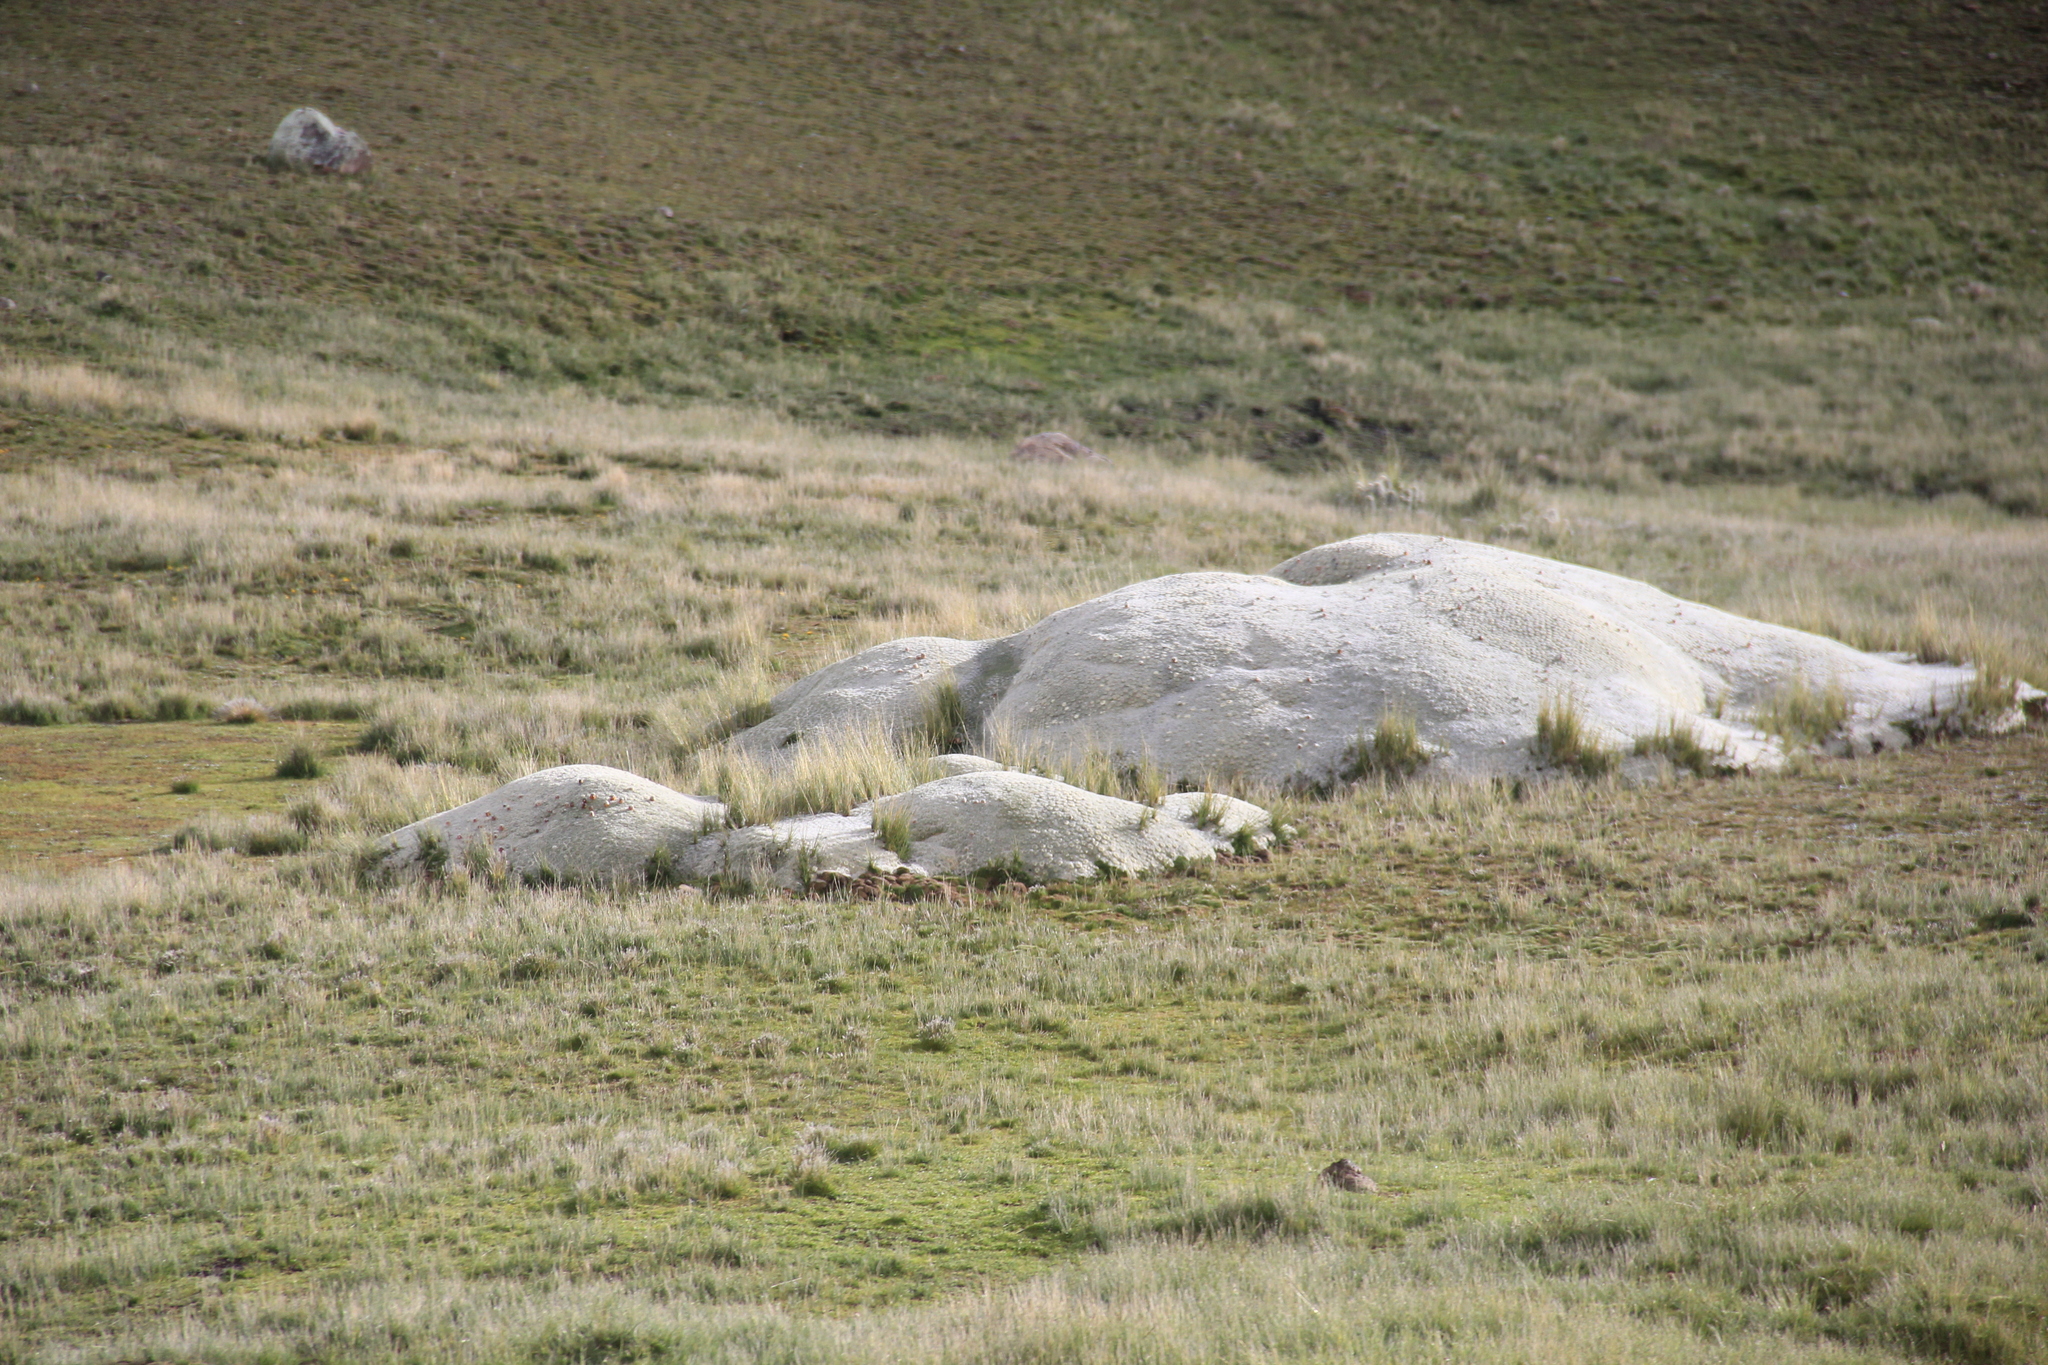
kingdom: Plantae
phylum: Tracheophyta
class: Magnoliopsida
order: Caryophyllales
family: Cactaceae
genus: Punotia
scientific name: Punotia lagopus
